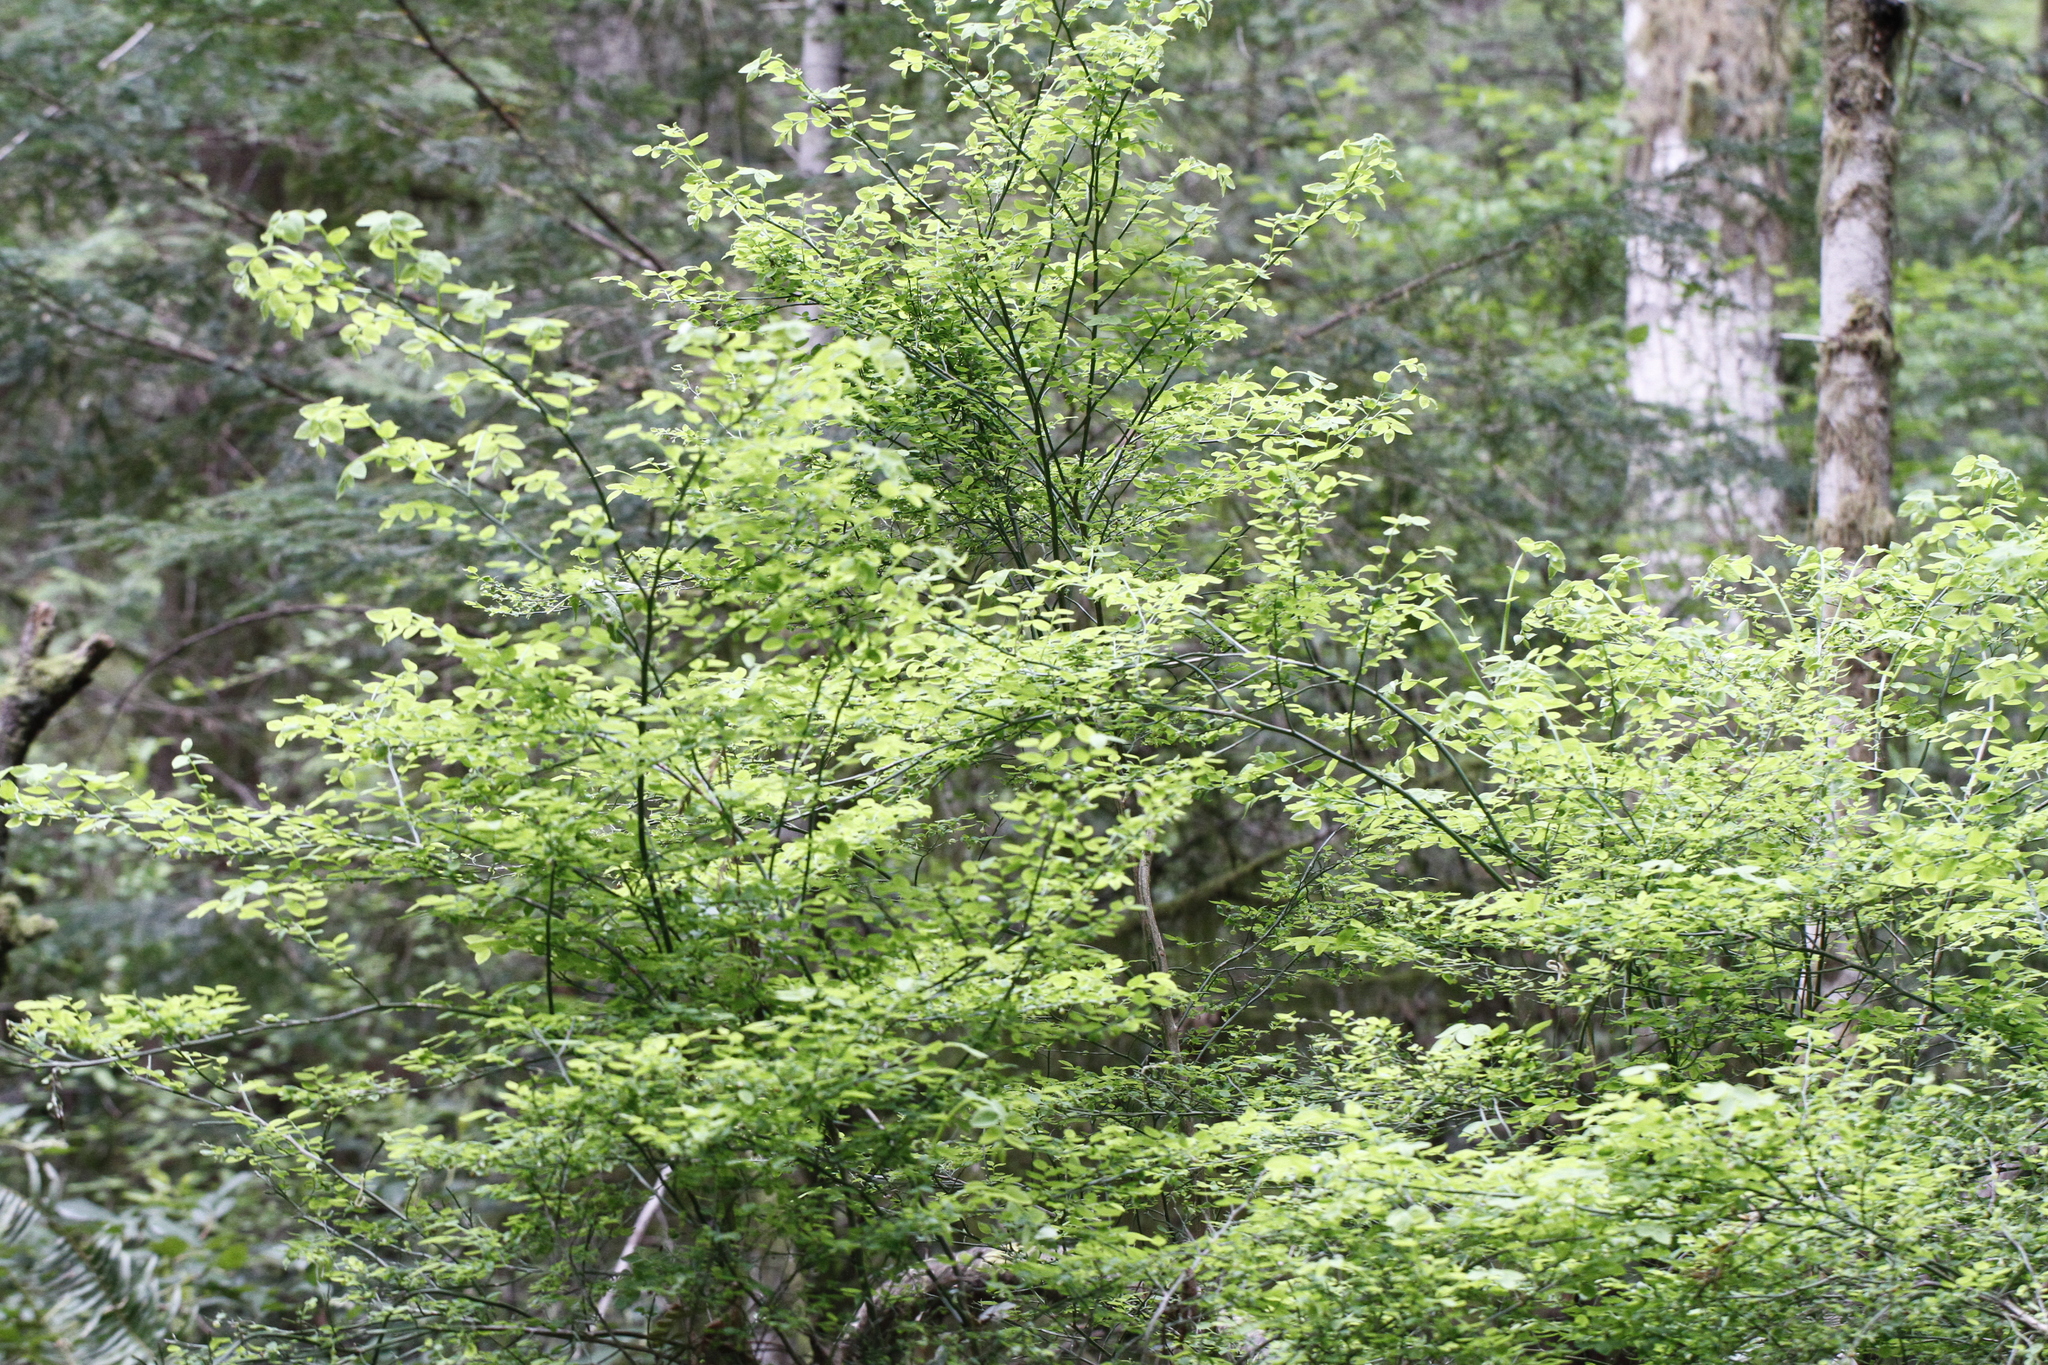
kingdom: Plantae
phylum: Tracheophyta
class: Magnoliopsida
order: Ericales
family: Ericaceae
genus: Vaccinium
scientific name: Vaccinium parvifolium
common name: Red-huckleberry
